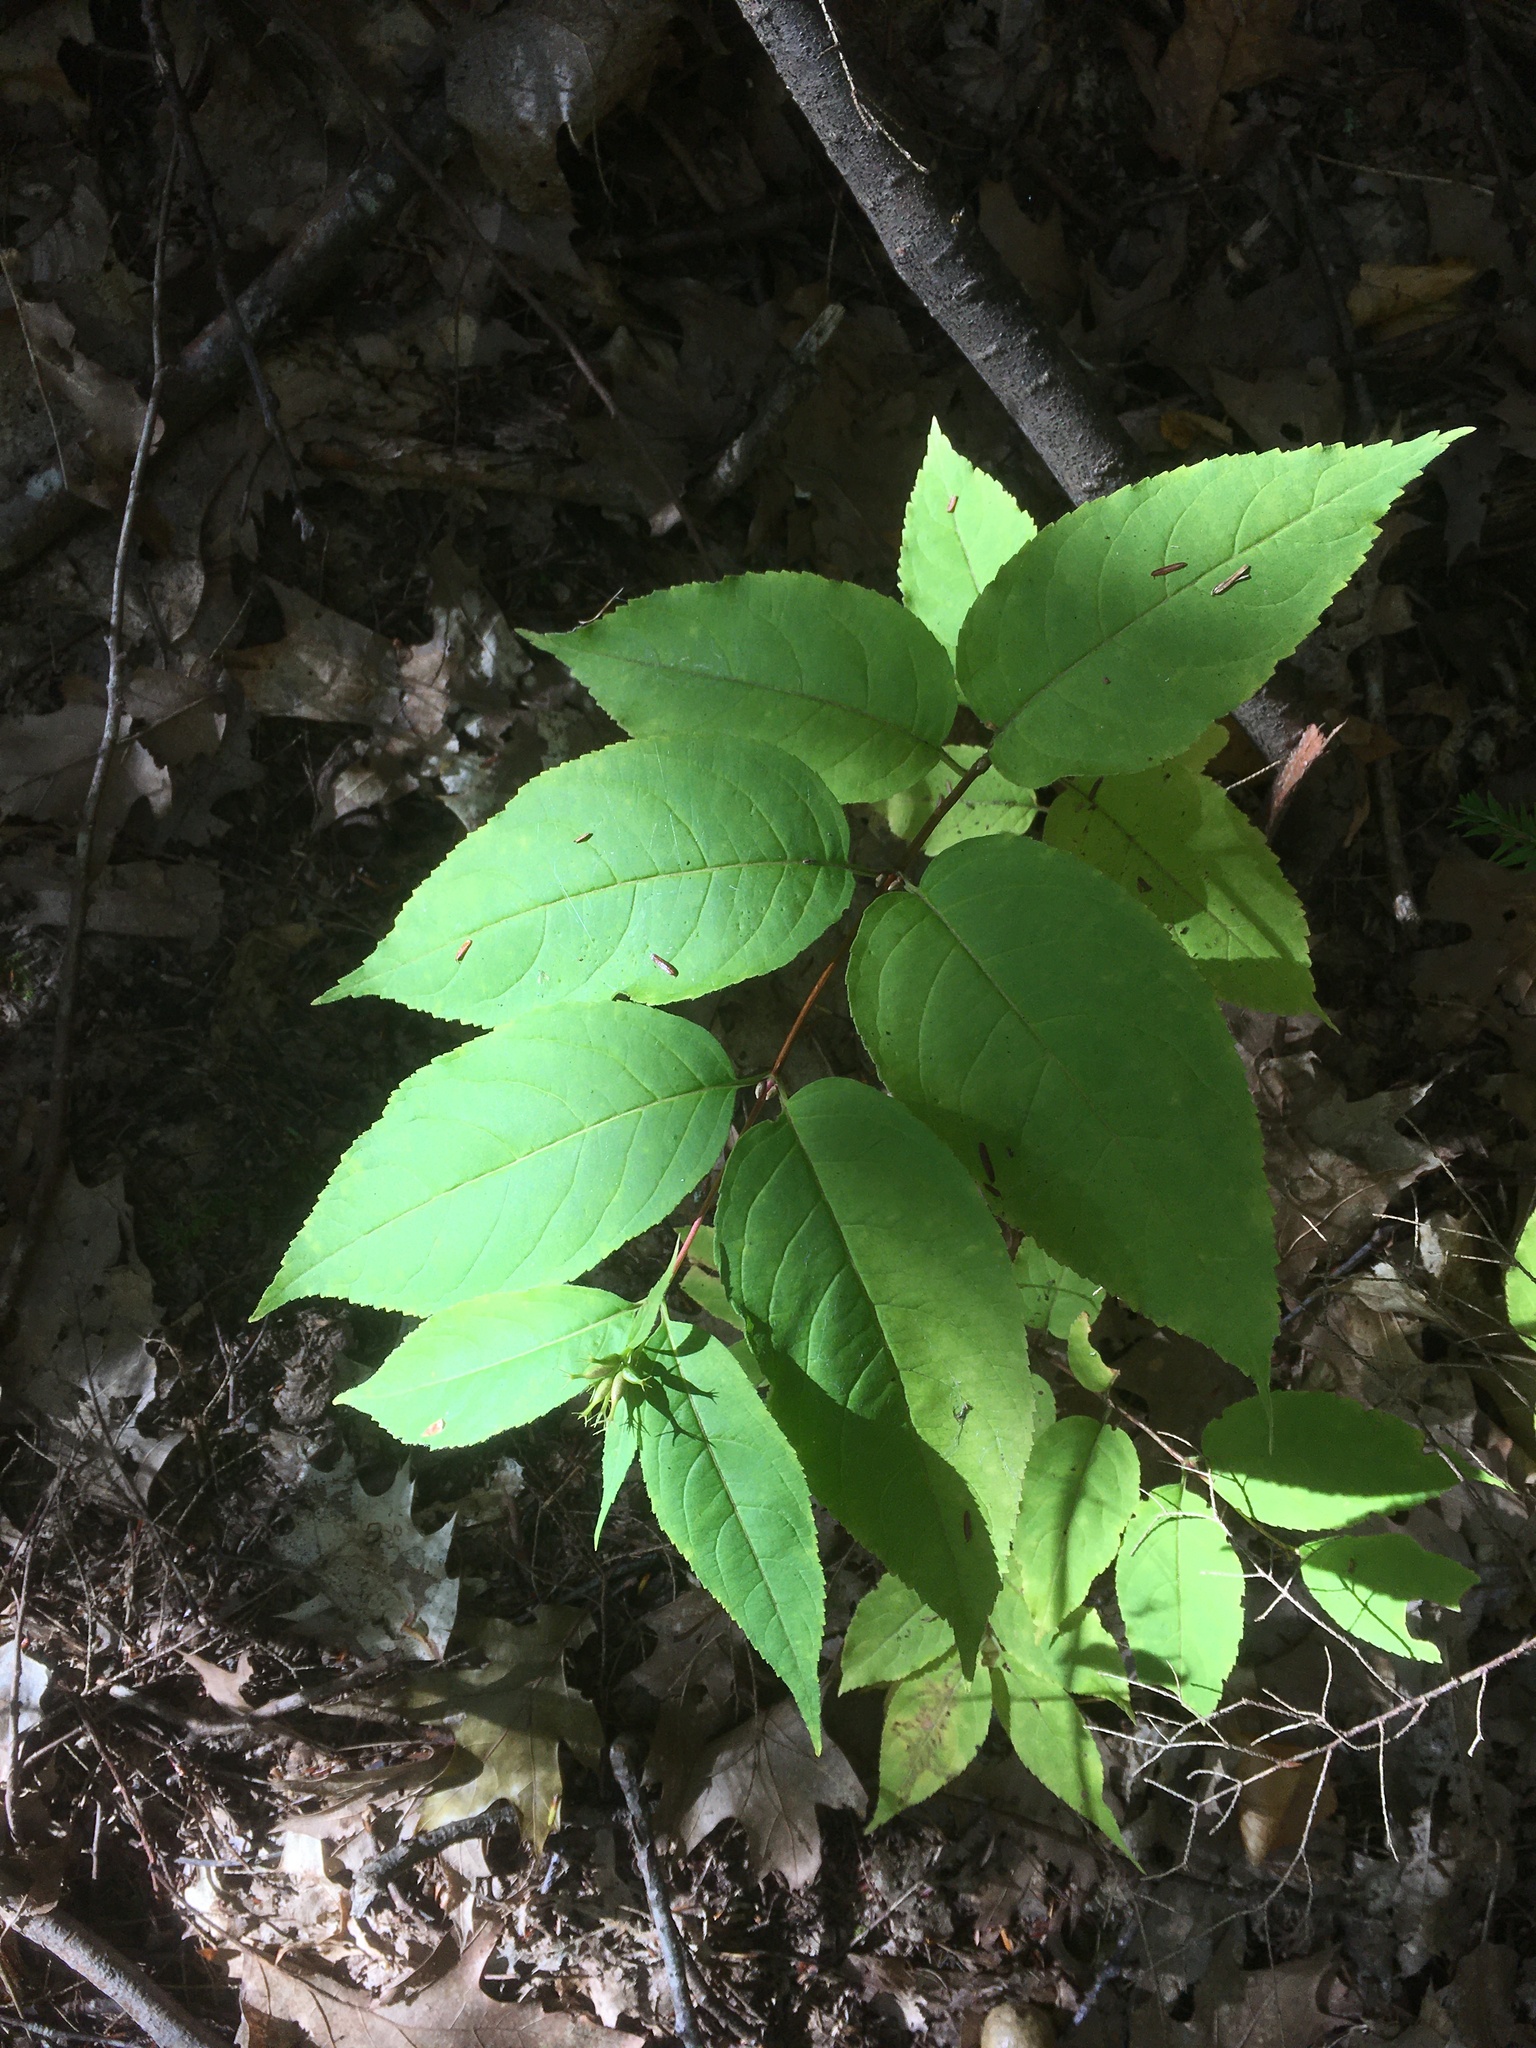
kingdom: Plantae
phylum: Tracheophyta
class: Magnoliopsida
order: Dipsacales
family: Caprifoliaceae
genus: Diervilla
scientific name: Diervilla lonicera
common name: Bush-honeysuckle
